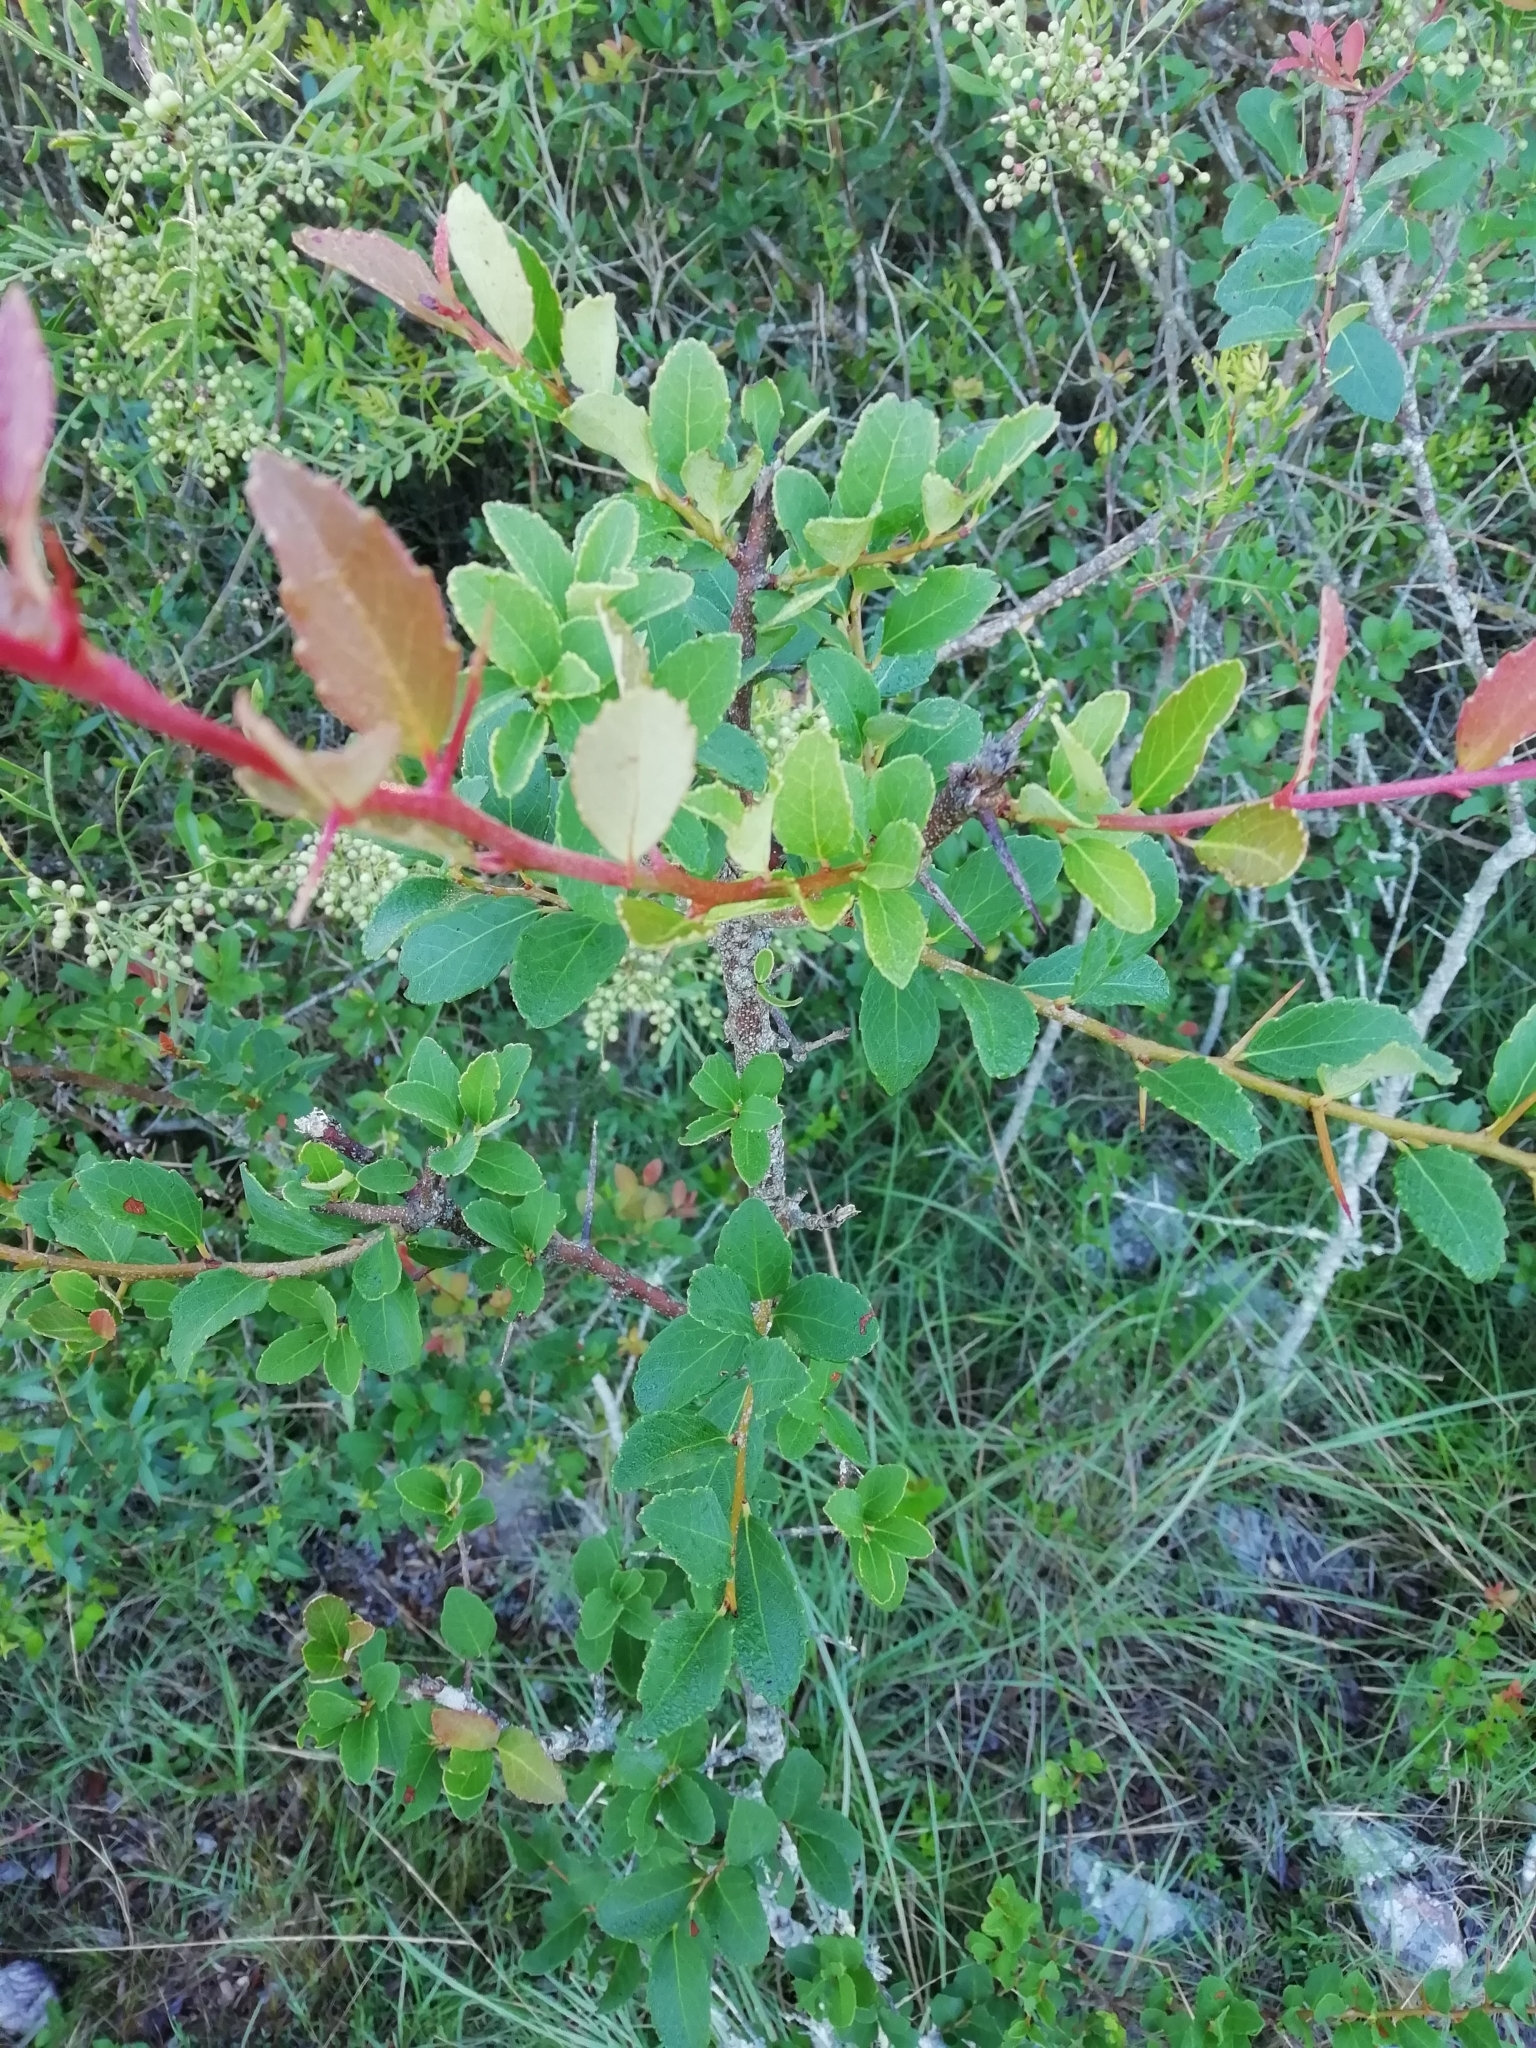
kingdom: Plantae
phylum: Tracheophyta
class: Magnoliopsida
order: Malpighiales
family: Salicaceae
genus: Xylosma
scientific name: Xylosma tweediana
